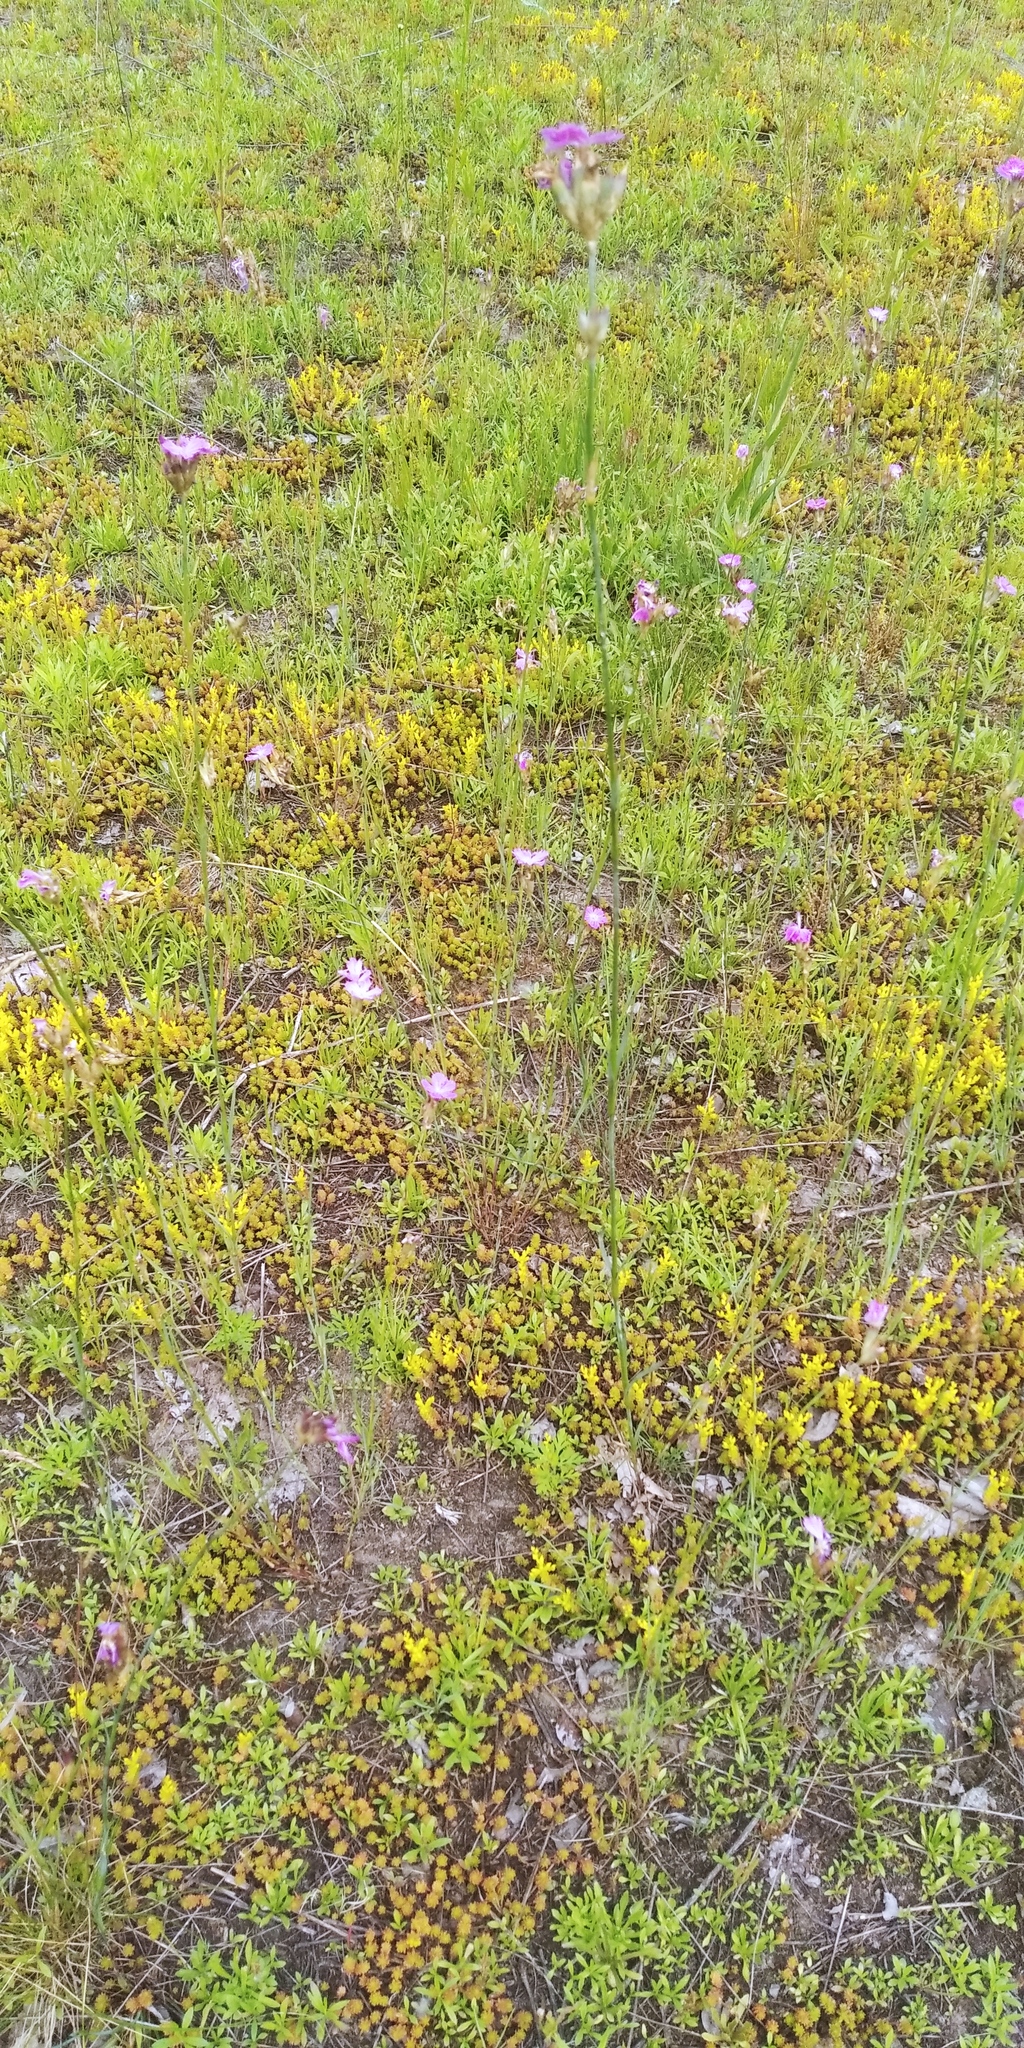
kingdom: Plantae
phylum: Tracheophyta
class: Magnoliopsida
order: Saxifragales
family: Crassulaceae
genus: Sedum
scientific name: Sedum sexangulare
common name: Tasteless stonecrop
